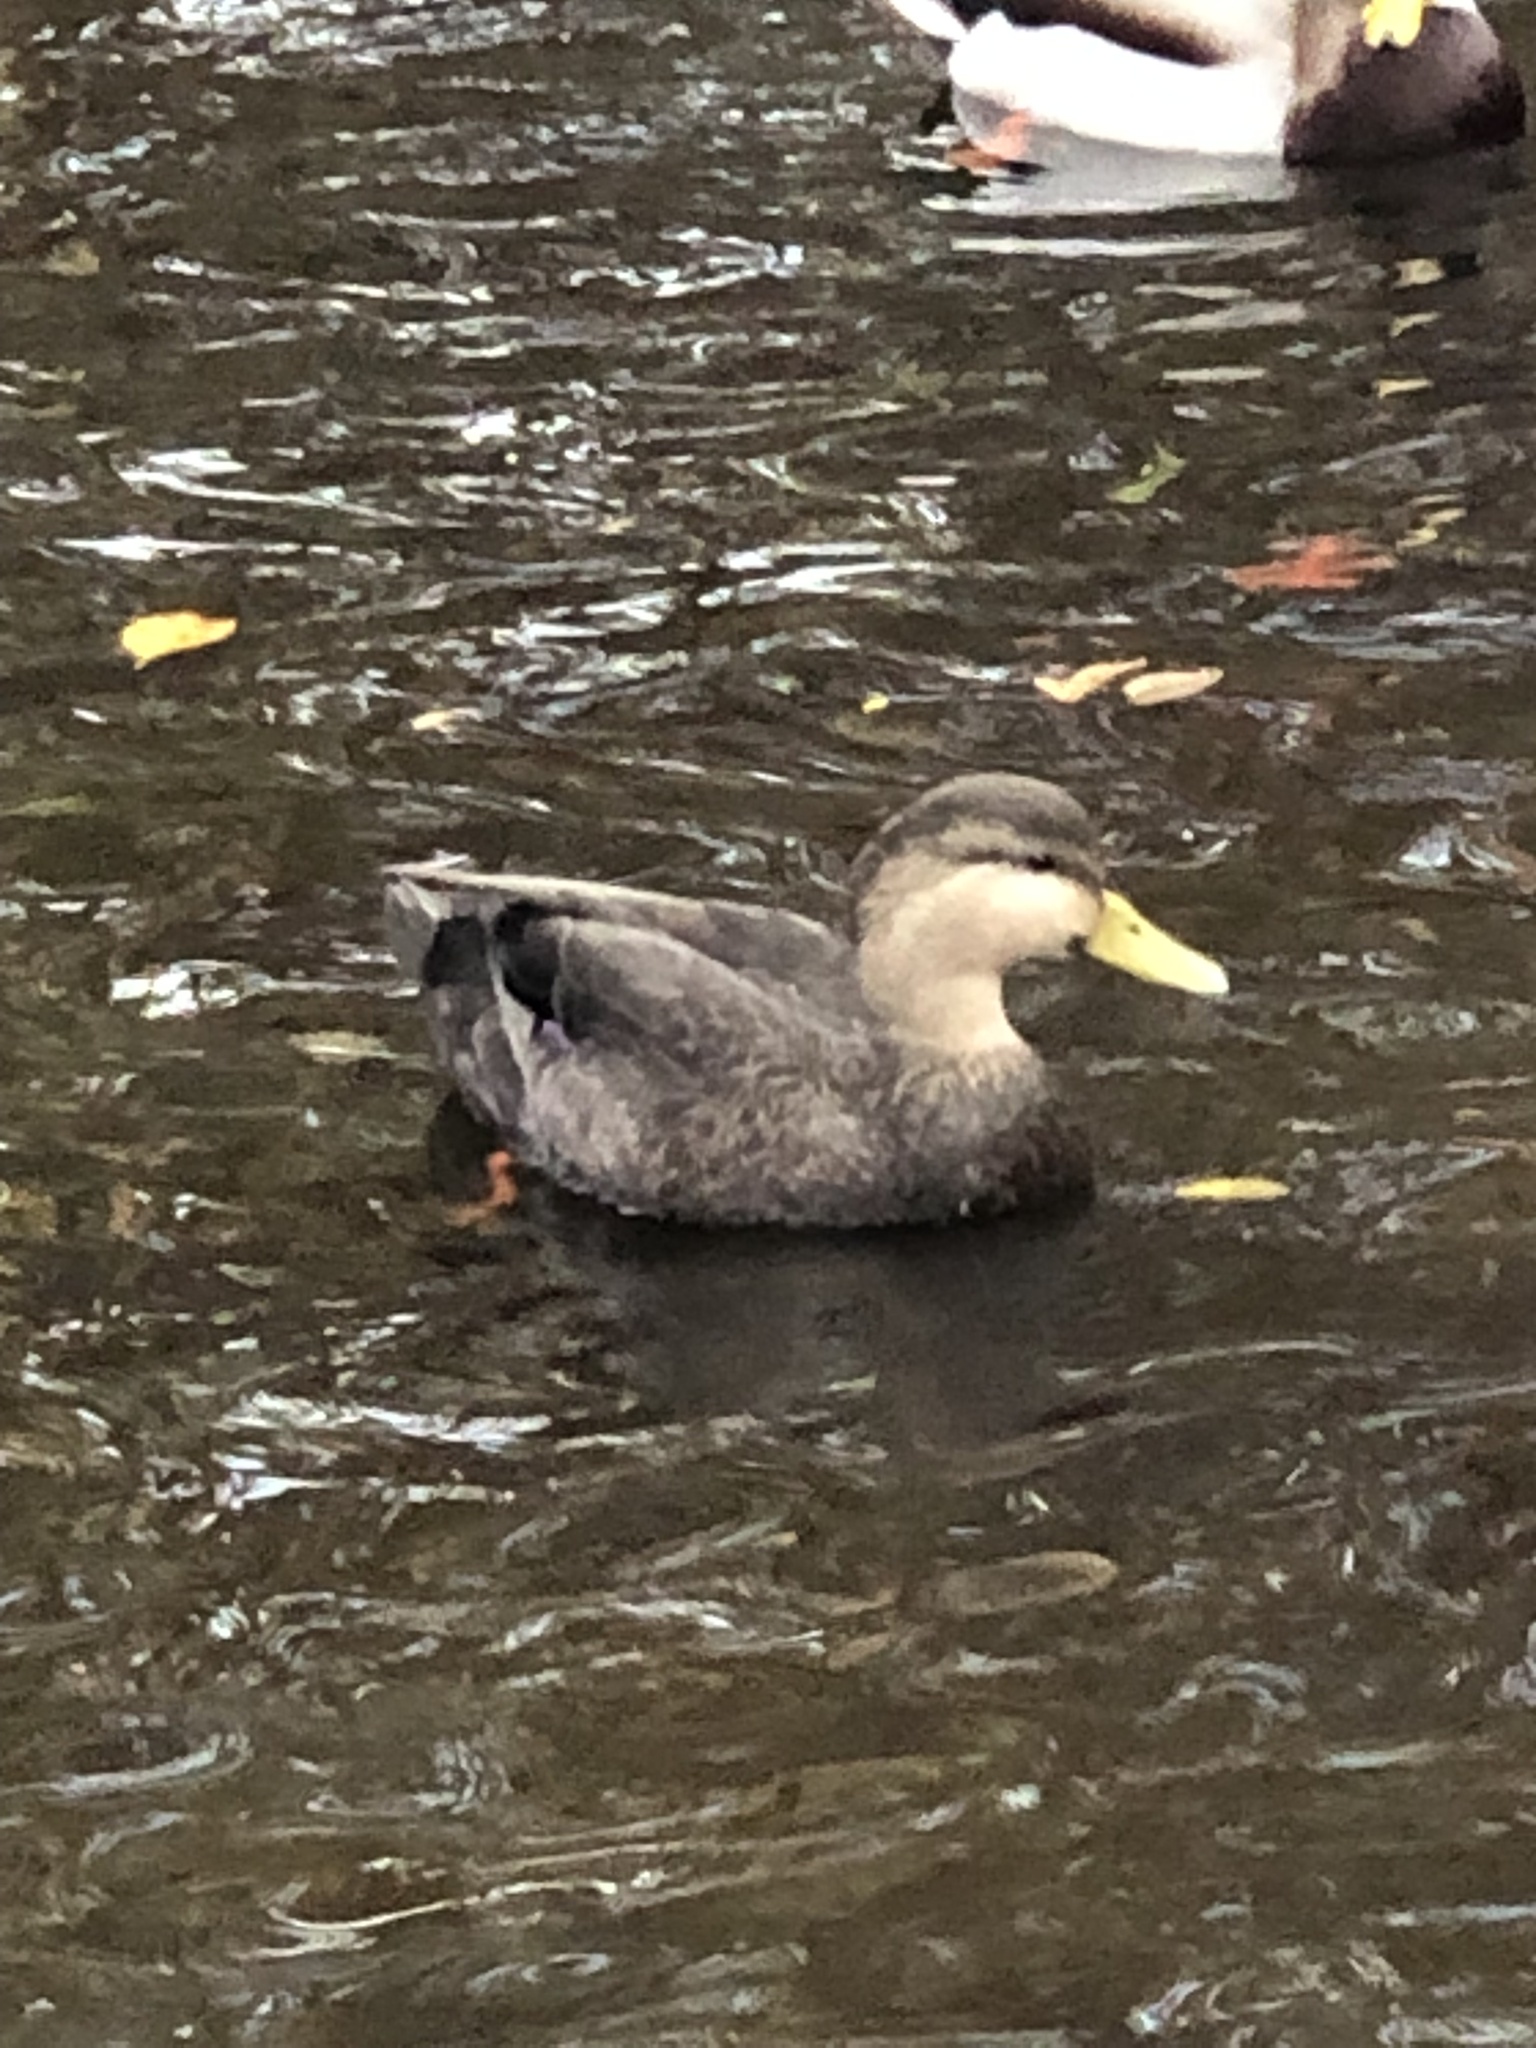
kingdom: Animalia
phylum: Chordata
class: Aves
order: Anseriformes
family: Anatidae
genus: Anas
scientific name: Anas rubripes
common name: American black duck
